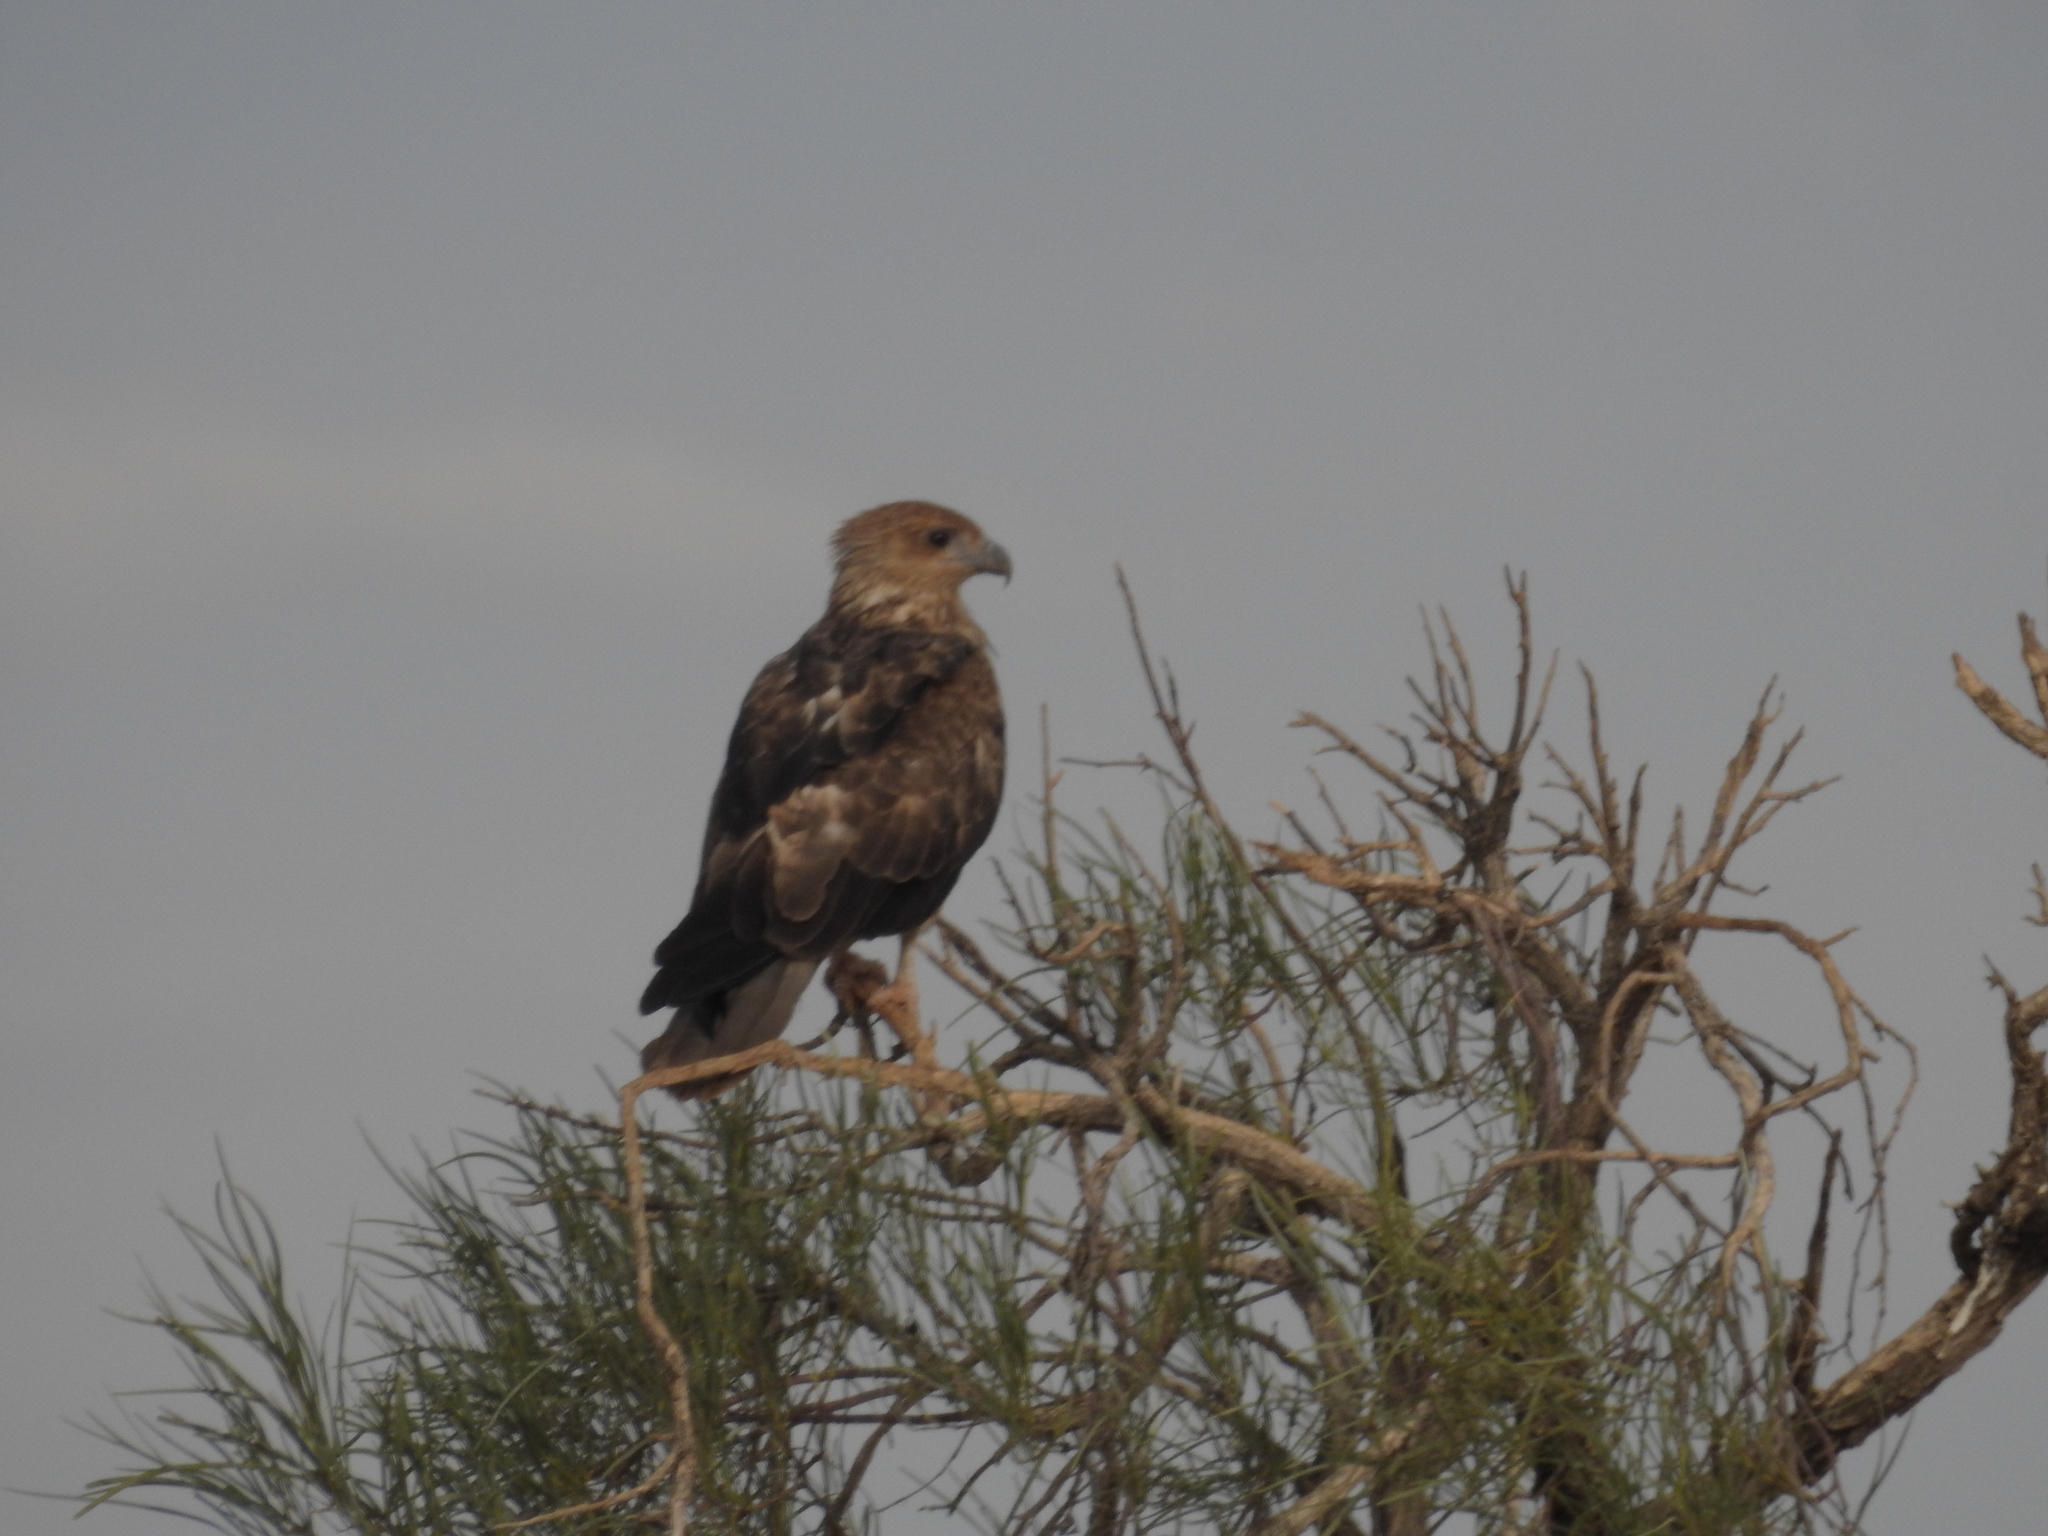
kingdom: Animalia
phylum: Chordata
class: Aves
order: Accipitriformes
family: Accipitridae
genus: Haliastur
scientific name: Haliastur sphenurus
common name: Whistling kite
